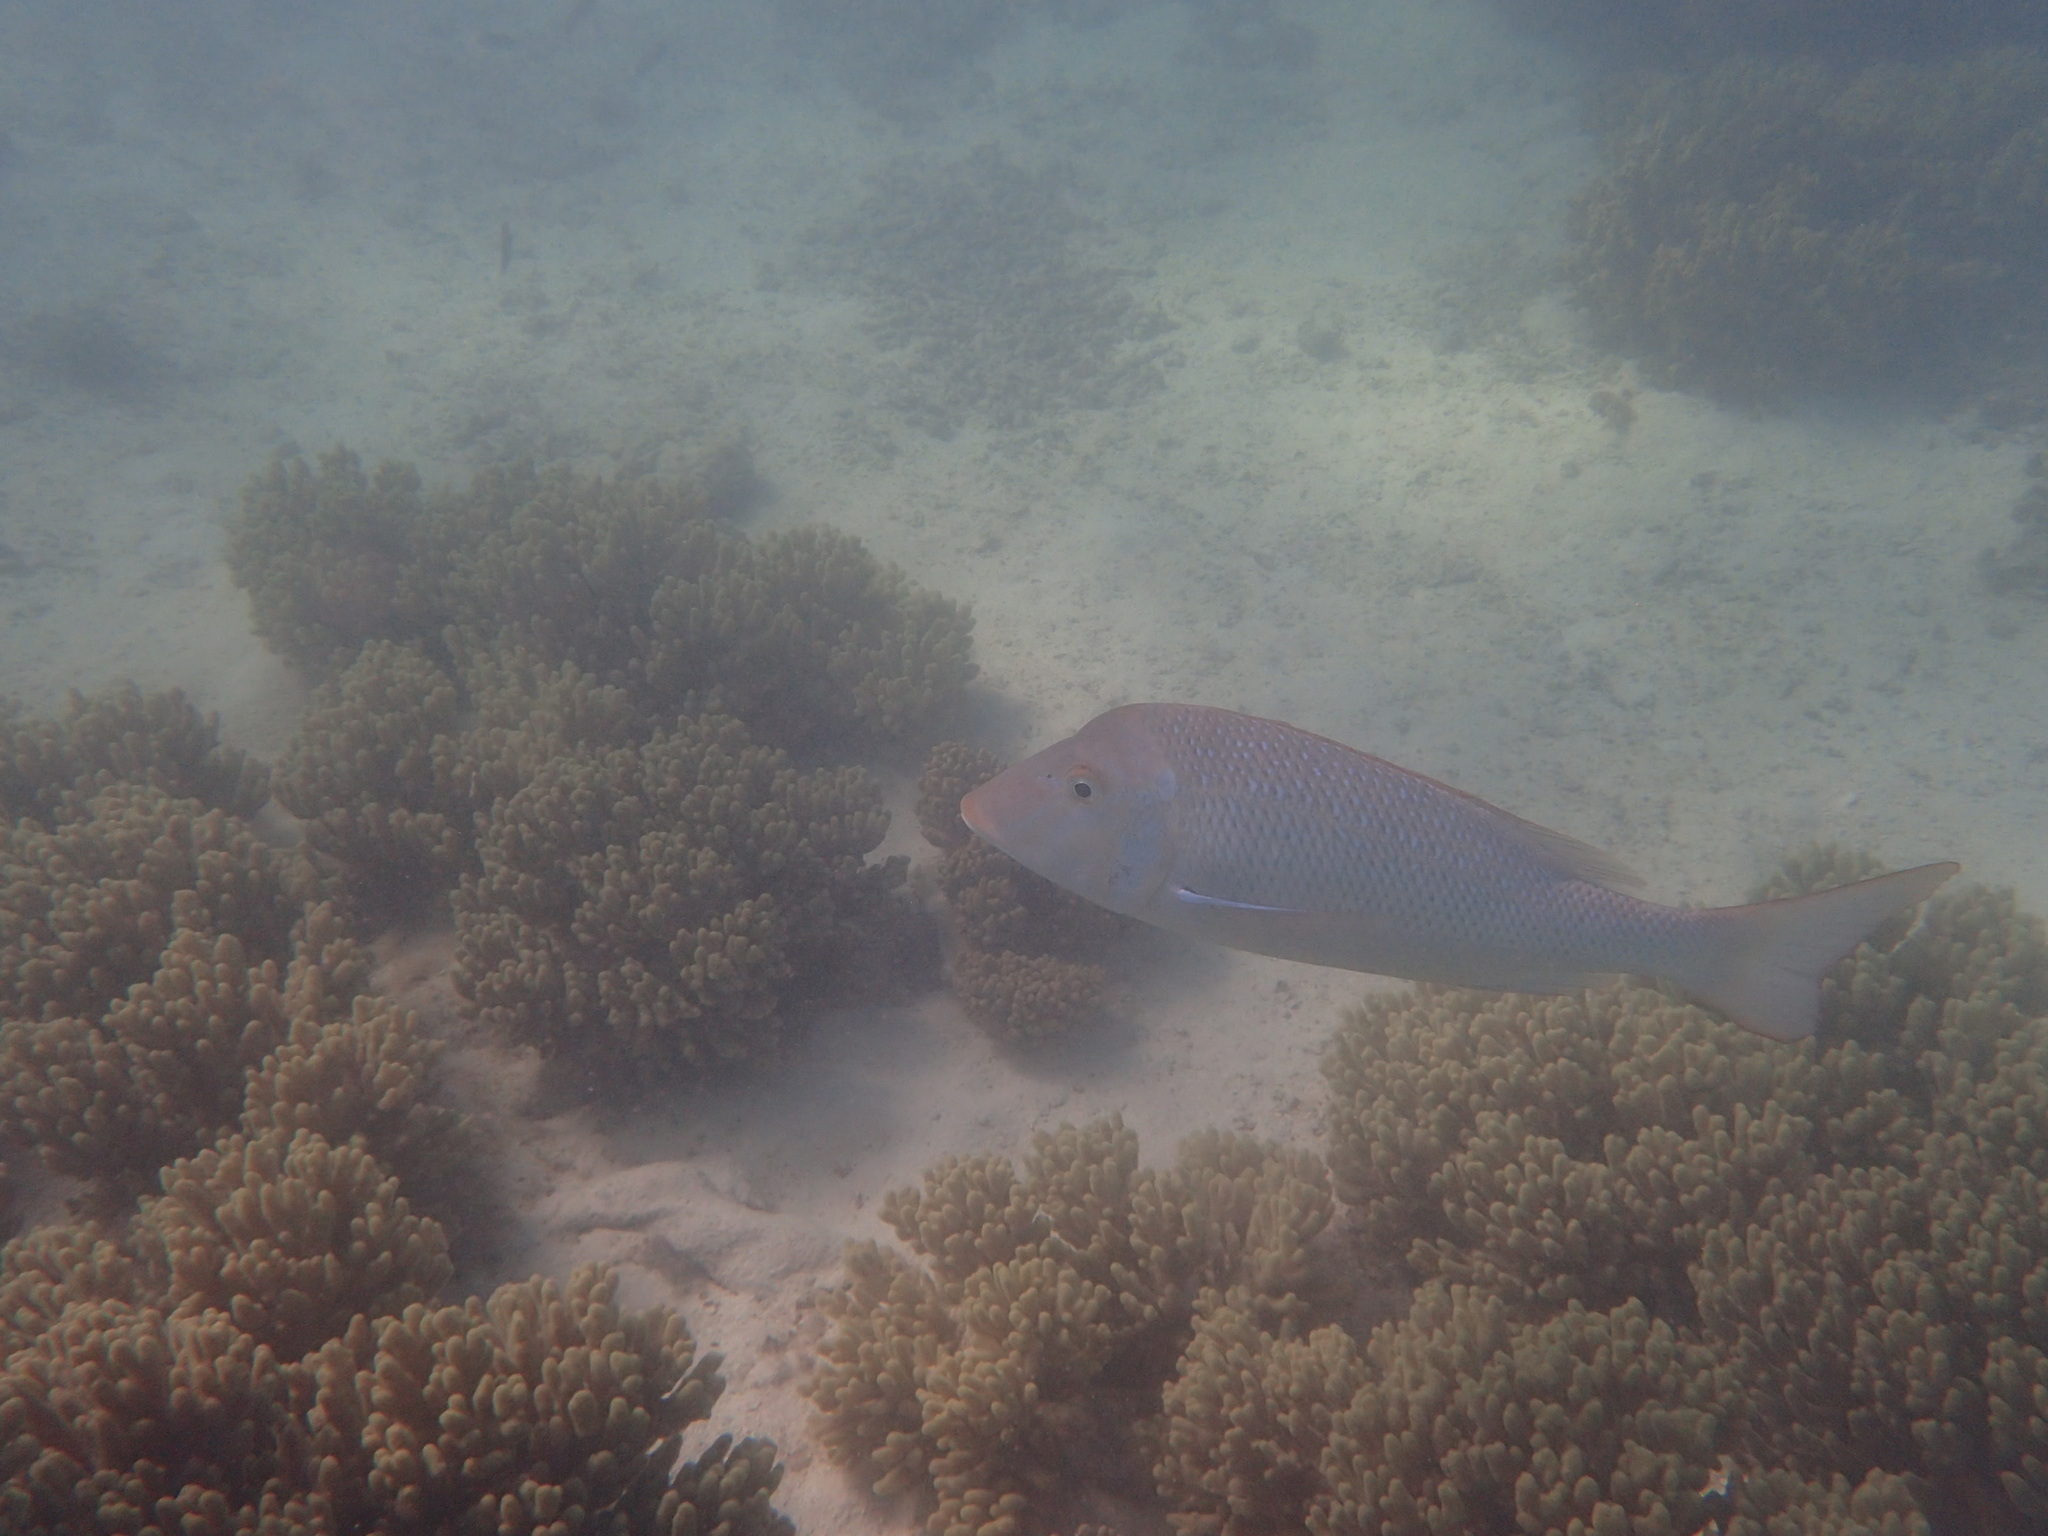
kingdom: Animalia
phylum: Chordata
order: Perciformes
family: Lethrinidae
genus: Lethrinus
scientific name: Lethrinus nebulosus
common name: Spangled emperor
